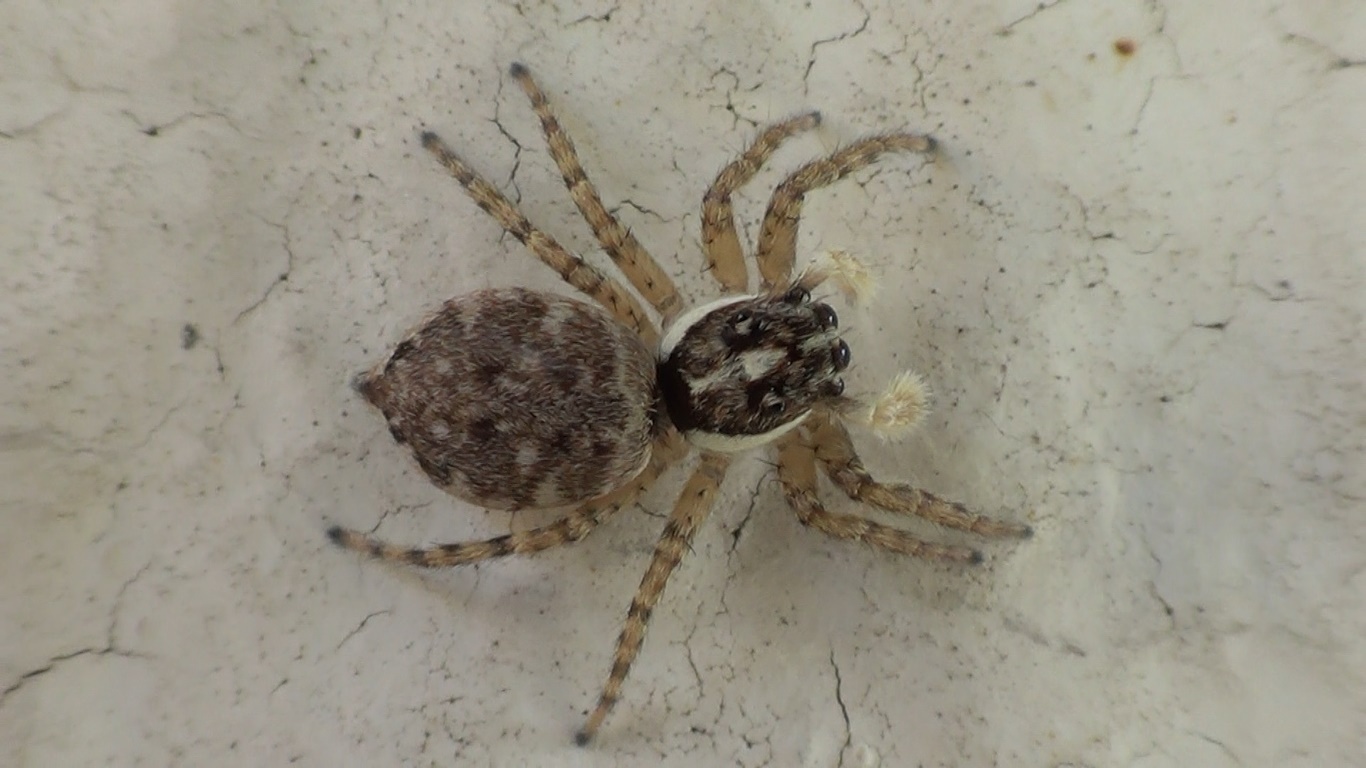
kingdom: Animalia
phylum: Arthropoda
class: Arachnida
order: Araneae
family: Salticidae
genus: Menemerus
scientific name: Menemerus semilimbatus
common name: Jumping spider
